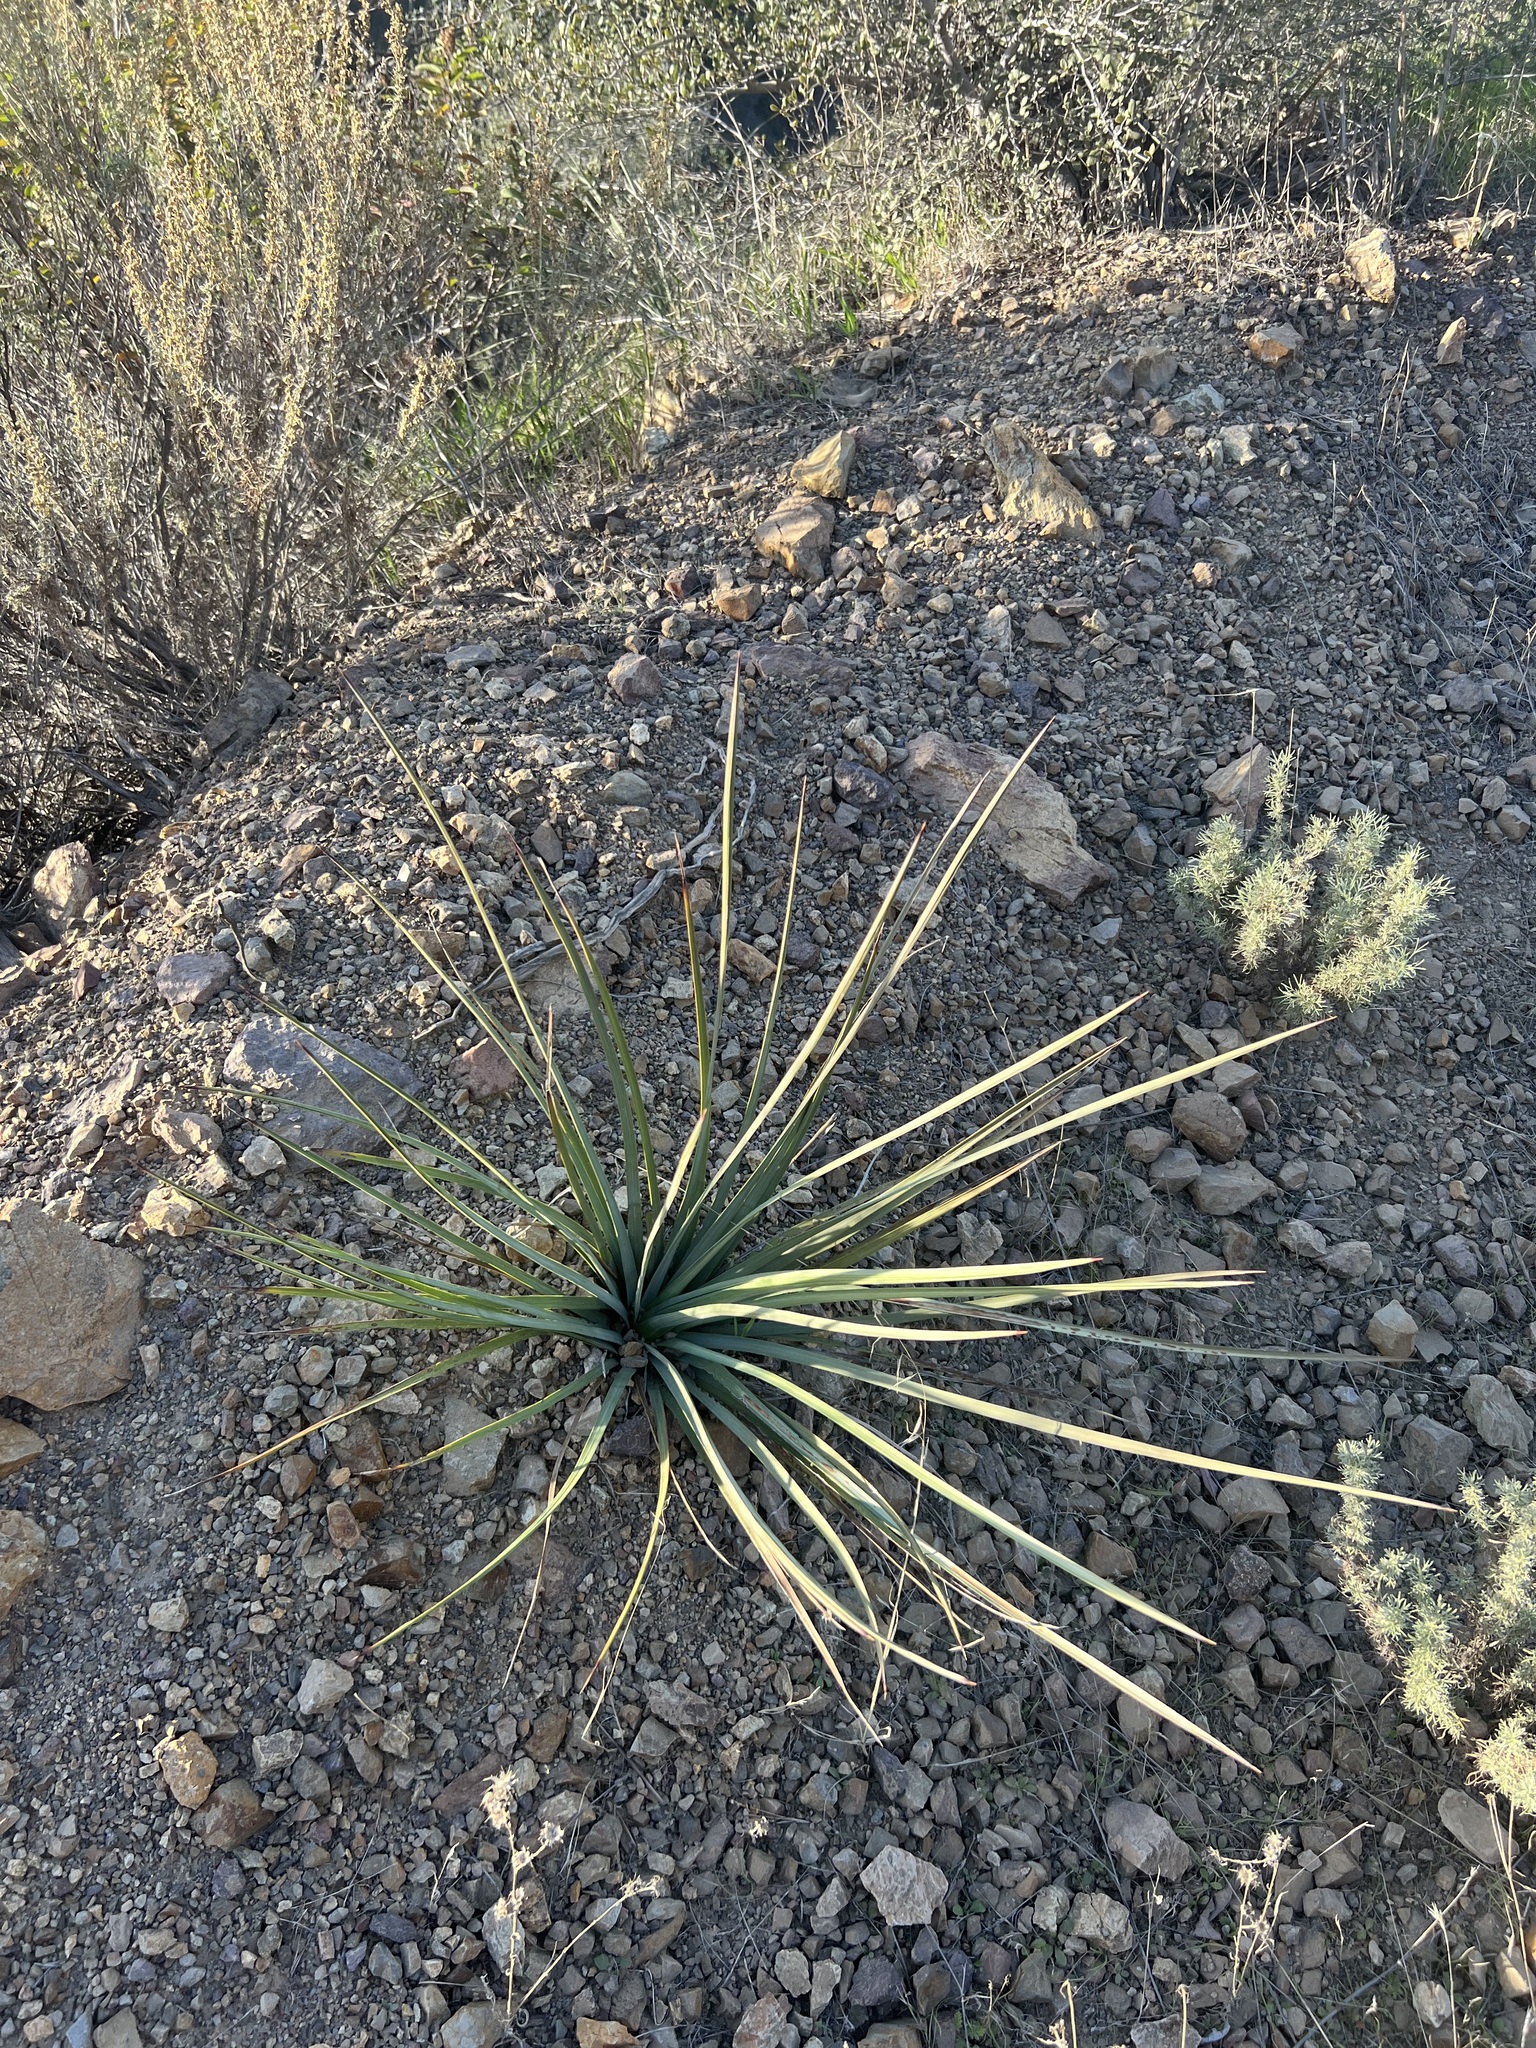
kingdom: Plantae
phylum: Tracheophyta
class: Liliopsida
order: Asparagales
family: Asparagaceae
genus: Hesperoyucca
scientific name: Hesperoyucca whipplei
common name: Our lord's-candle
